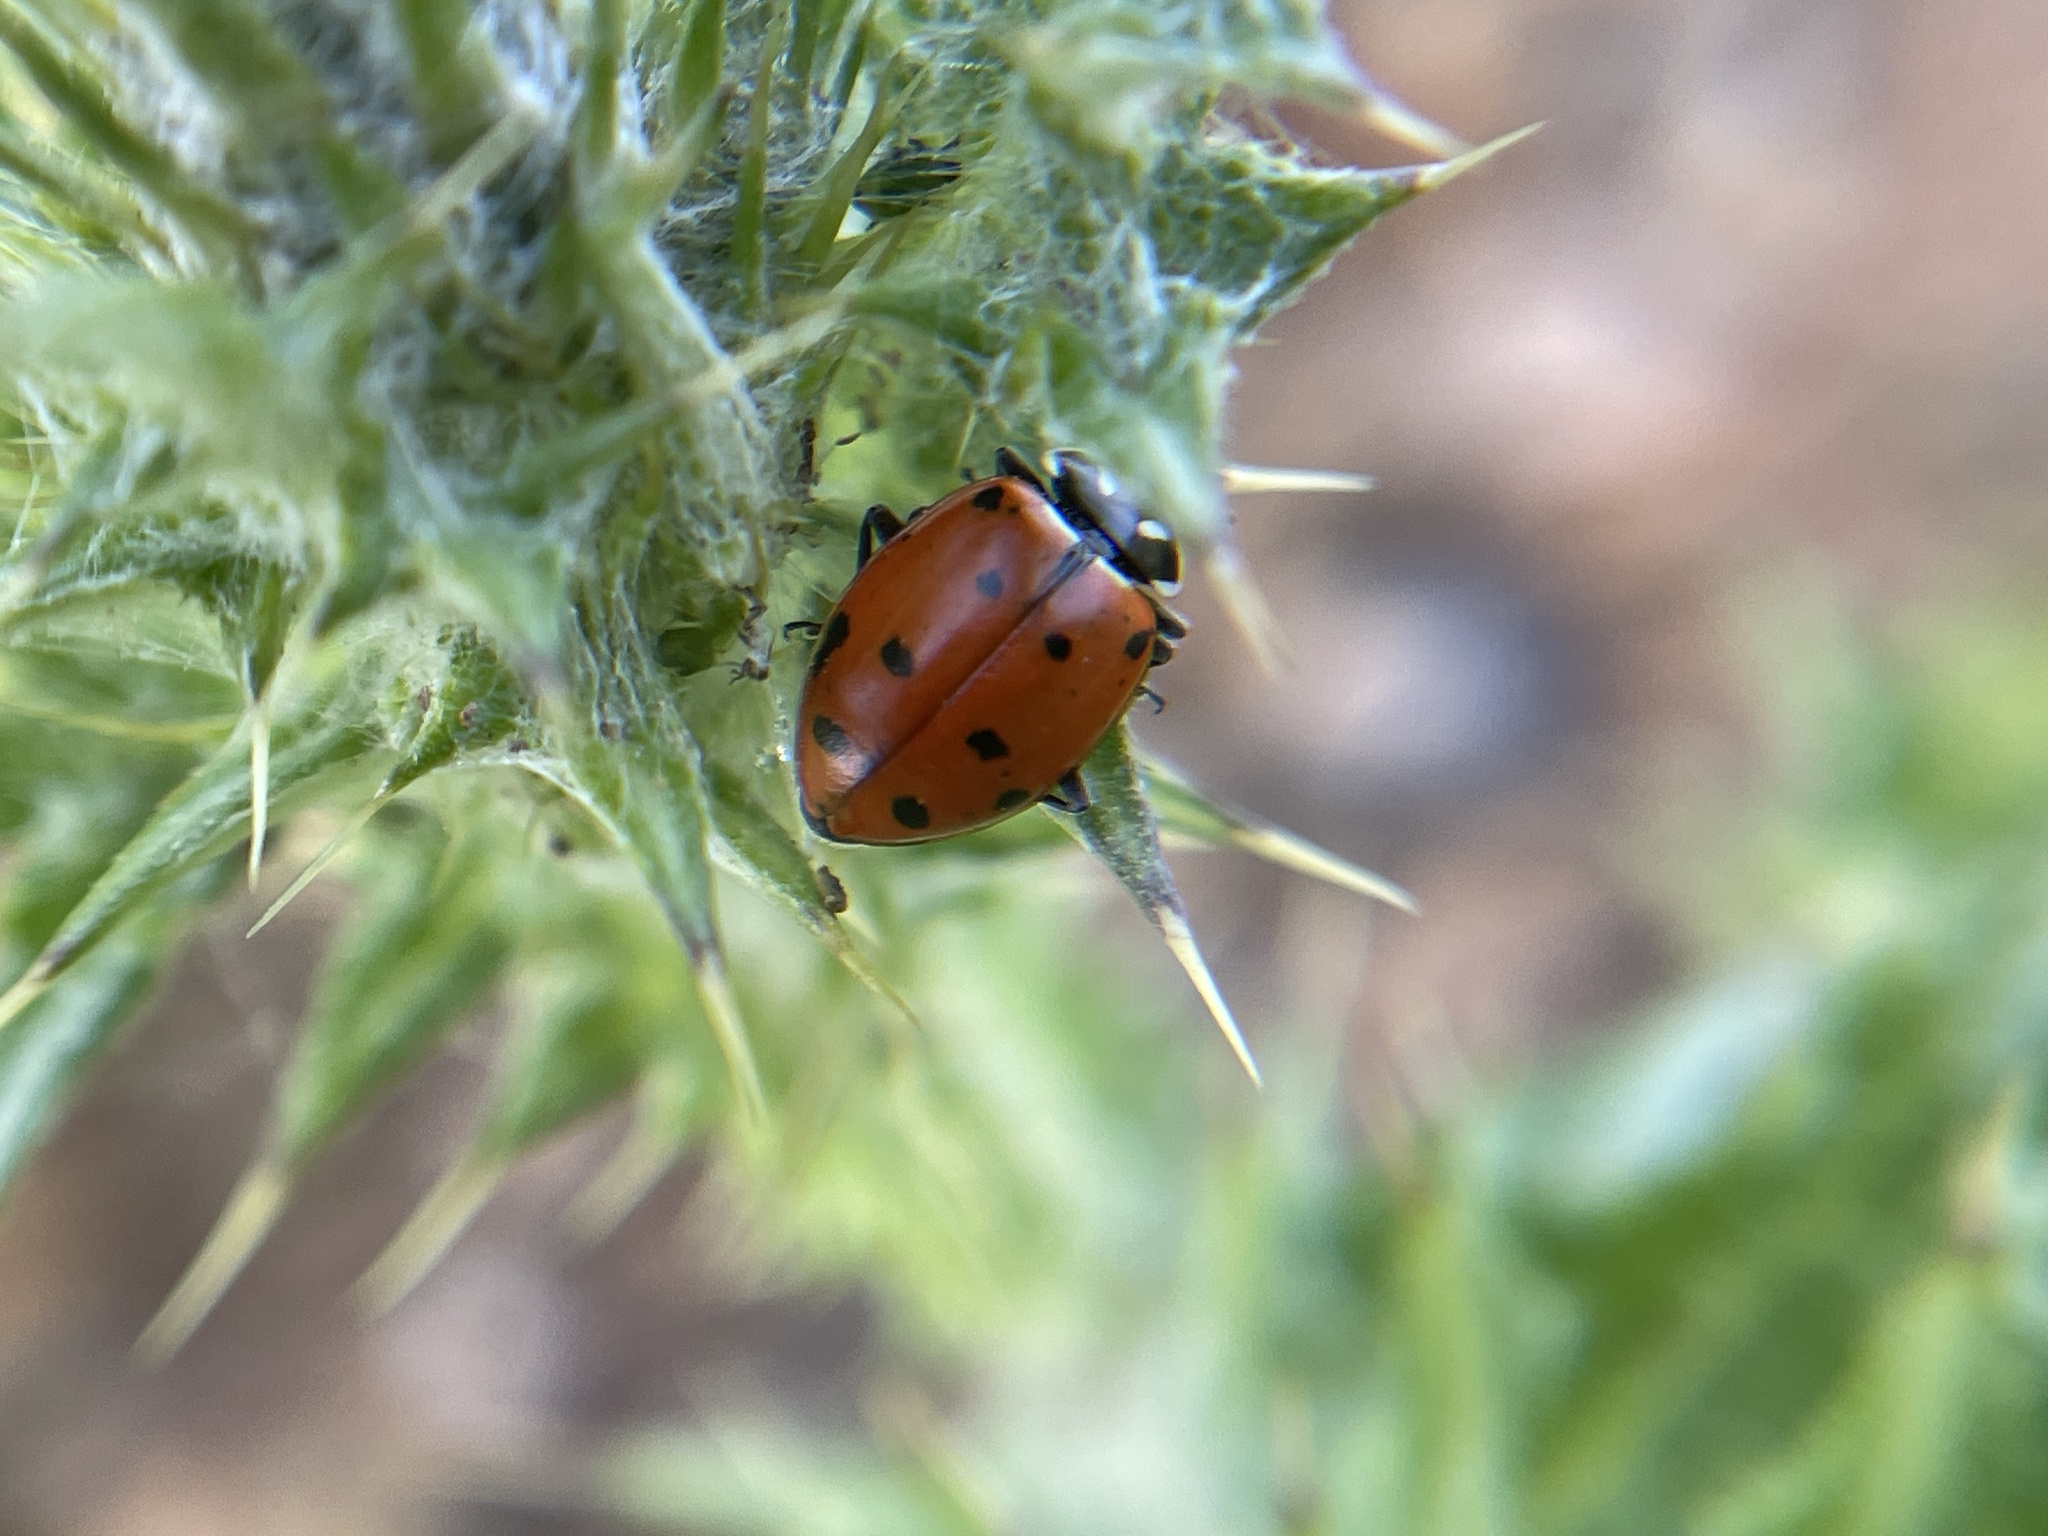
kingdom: Animalia
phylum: Arthropoda
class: Insecta
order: Coleoptera
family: Coccinellidae
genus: Hippodamia
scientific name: Hippodamia convergens
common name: Convergent lady beetle
